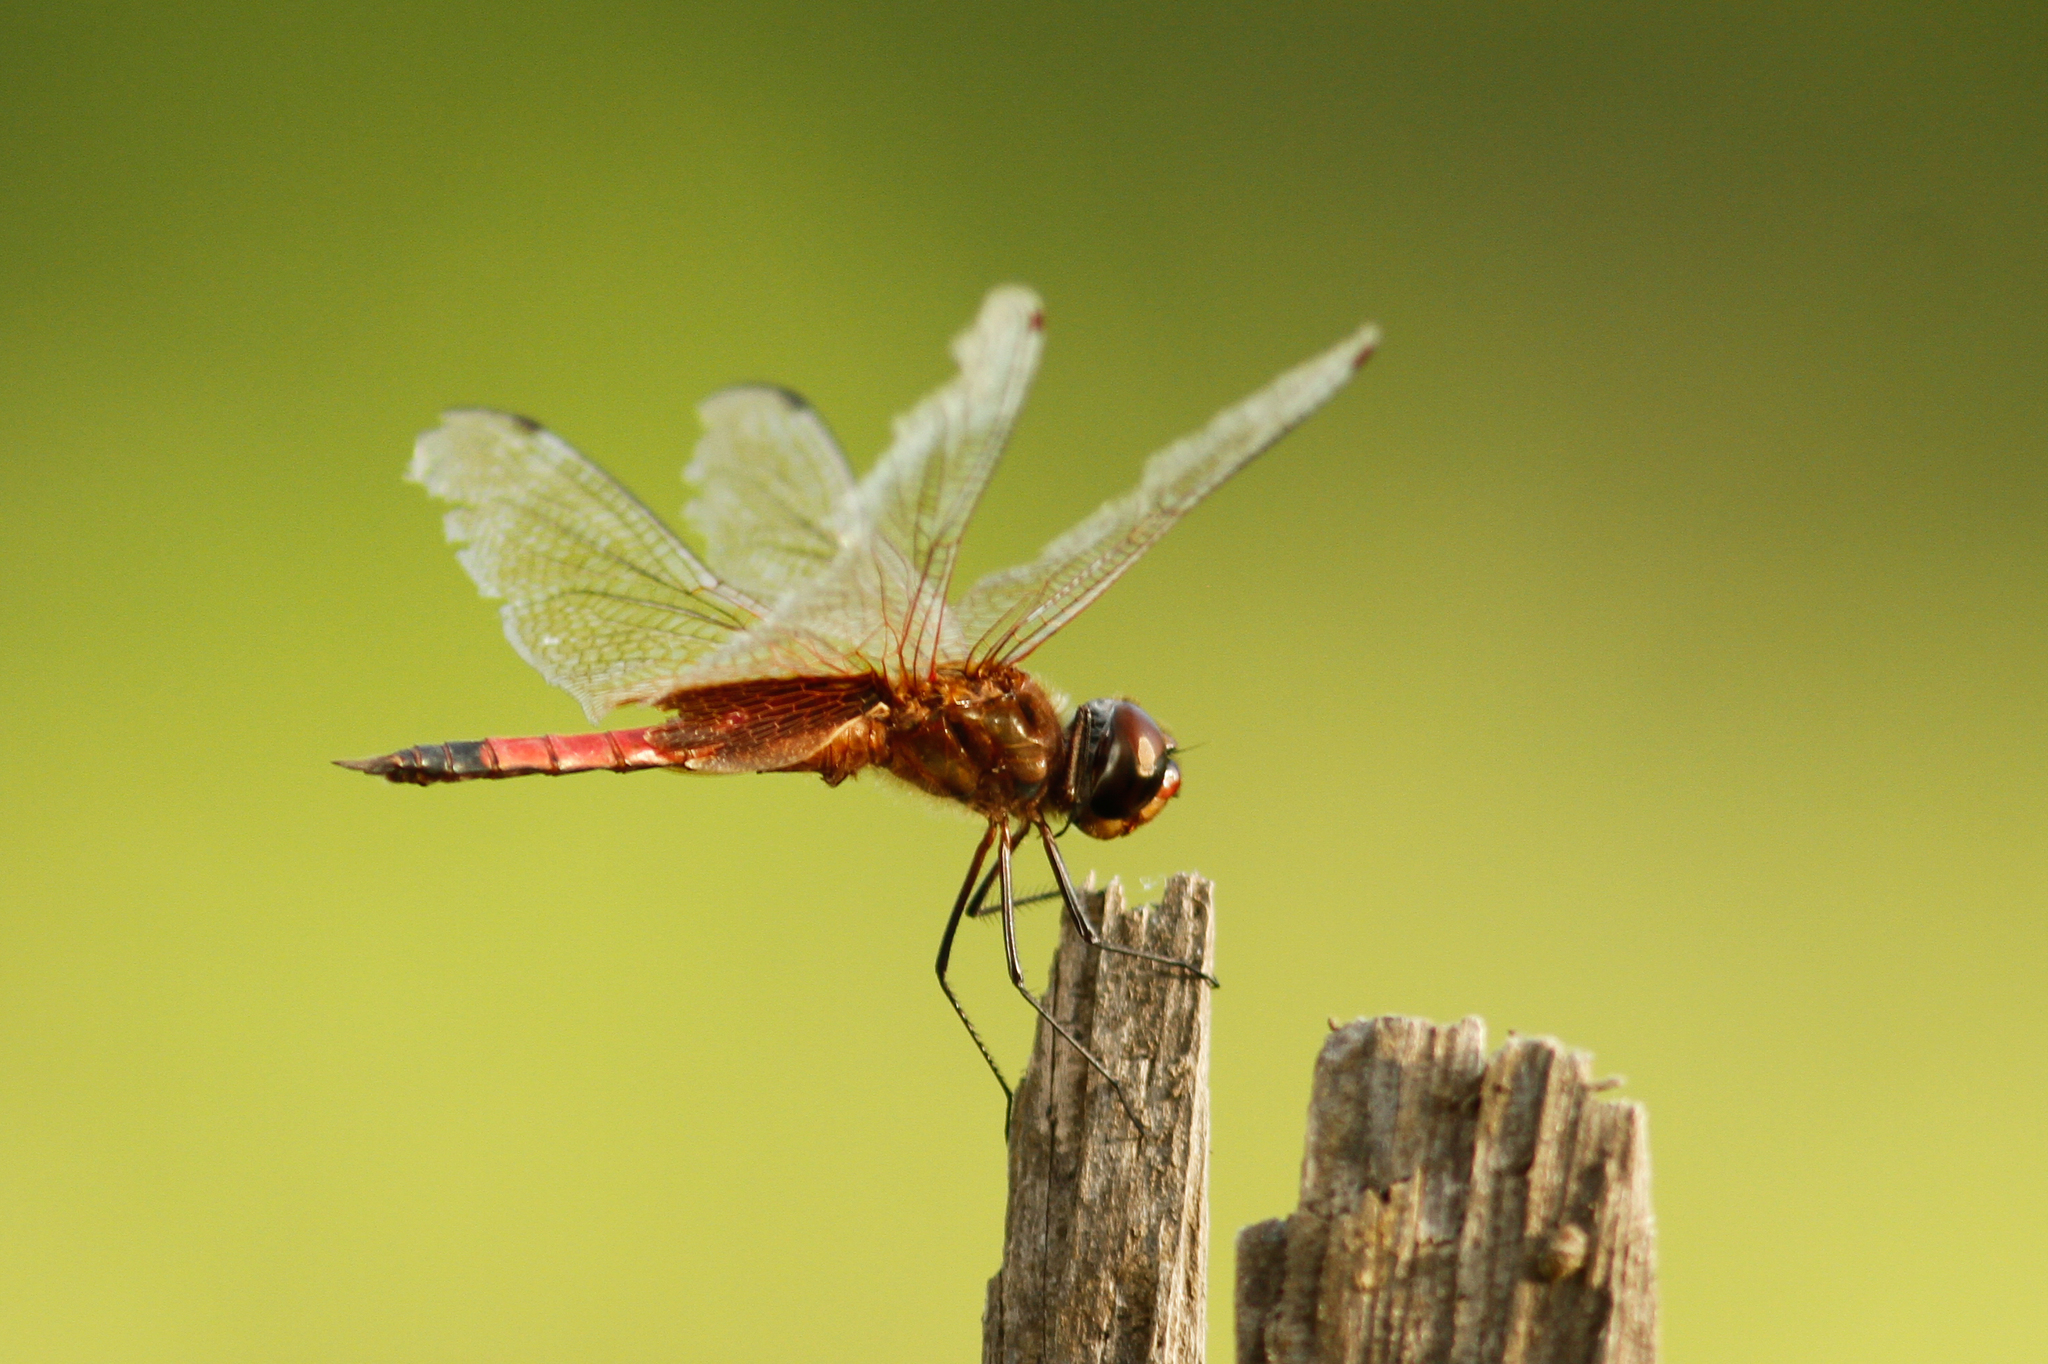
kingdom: Animalia
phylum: Arthropoda
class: Insecta
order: Odonata
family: Libellulidae
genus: Tramea
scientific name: Tramea abdominalis
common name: Vermilion saddlebags
